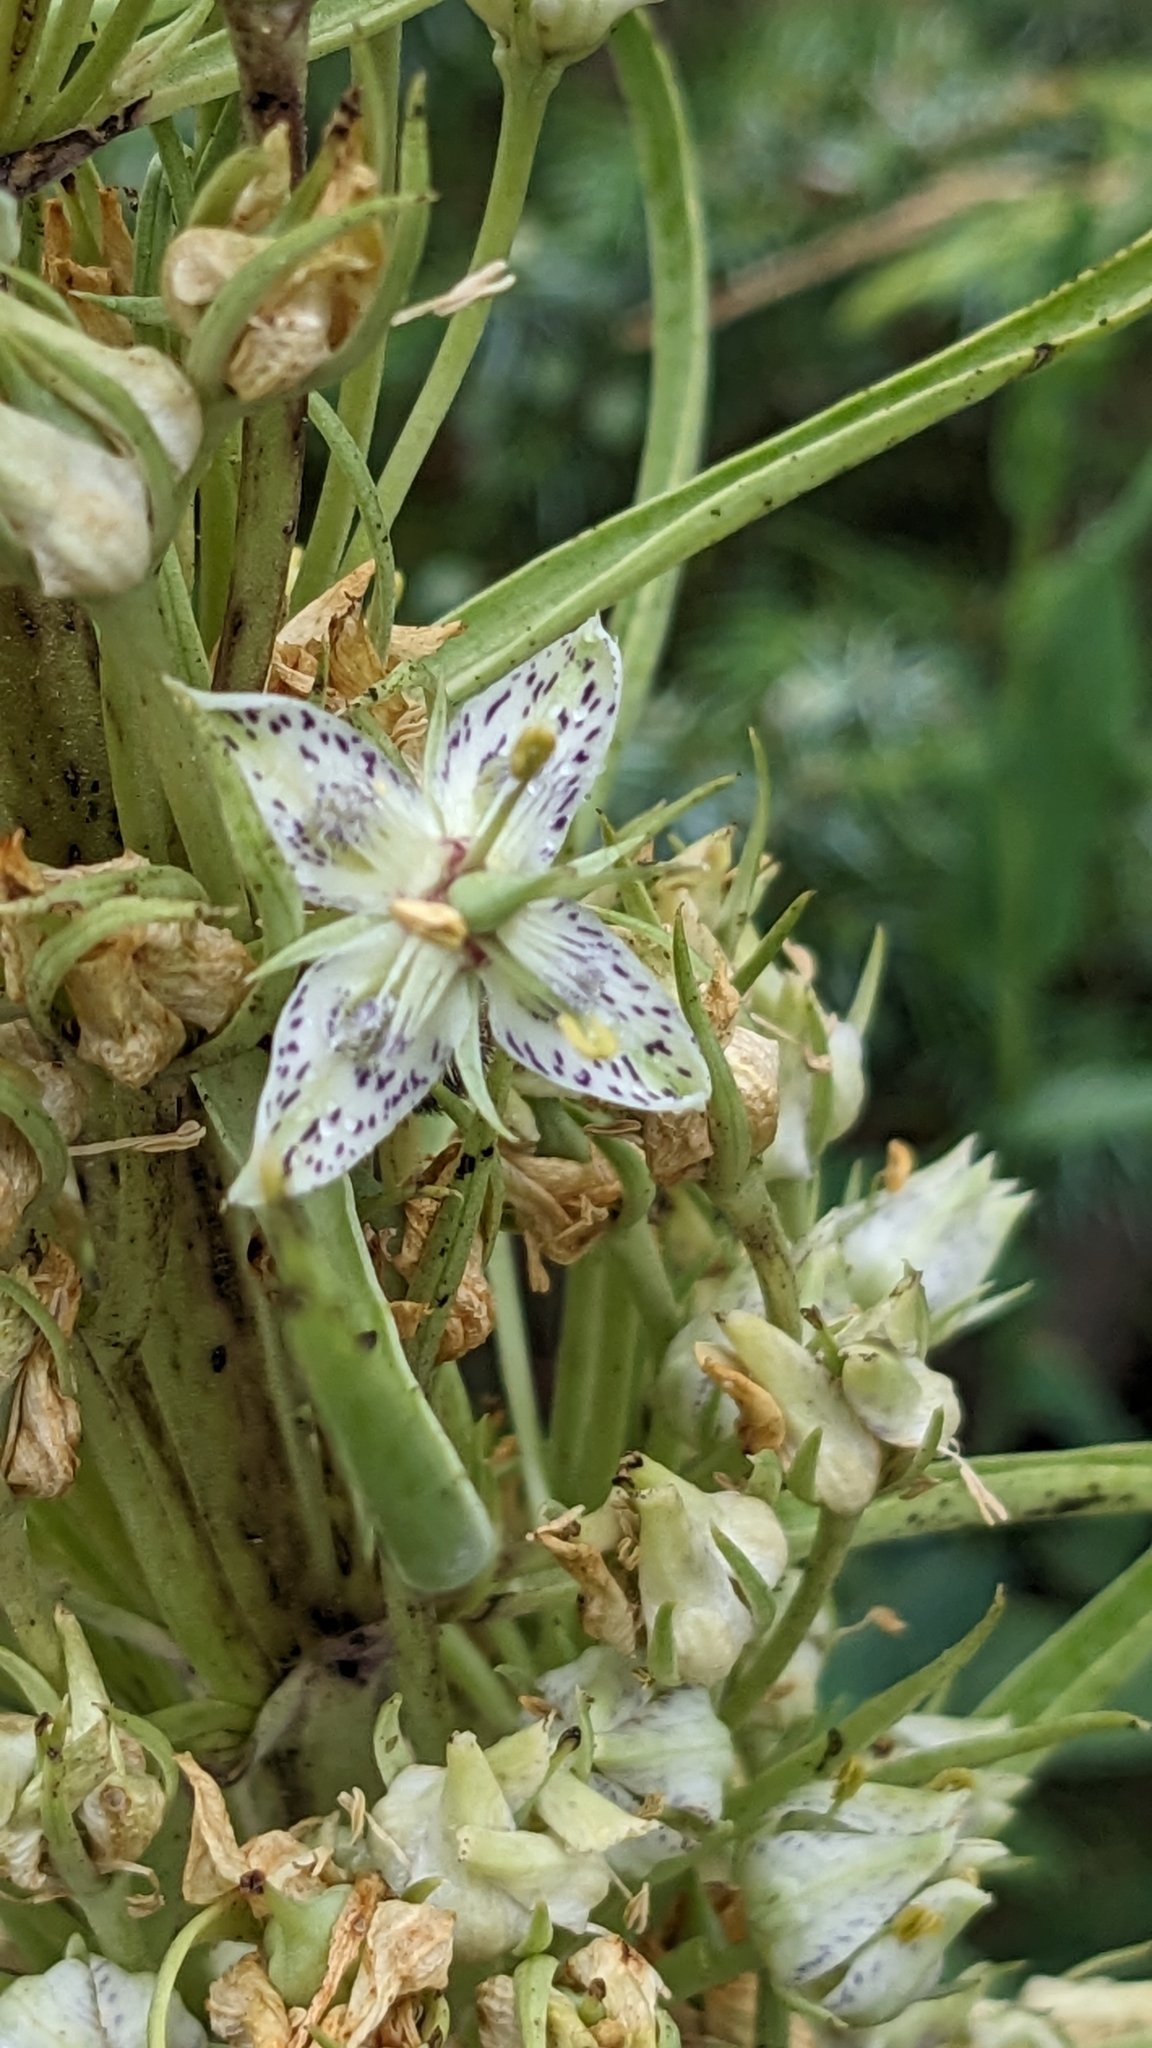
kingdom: Plantae
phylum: Tracheophyta
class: Magnoliopsida
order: Gentianales
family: Gentianaceae
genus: Frasera
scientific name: Frasera speciosa
